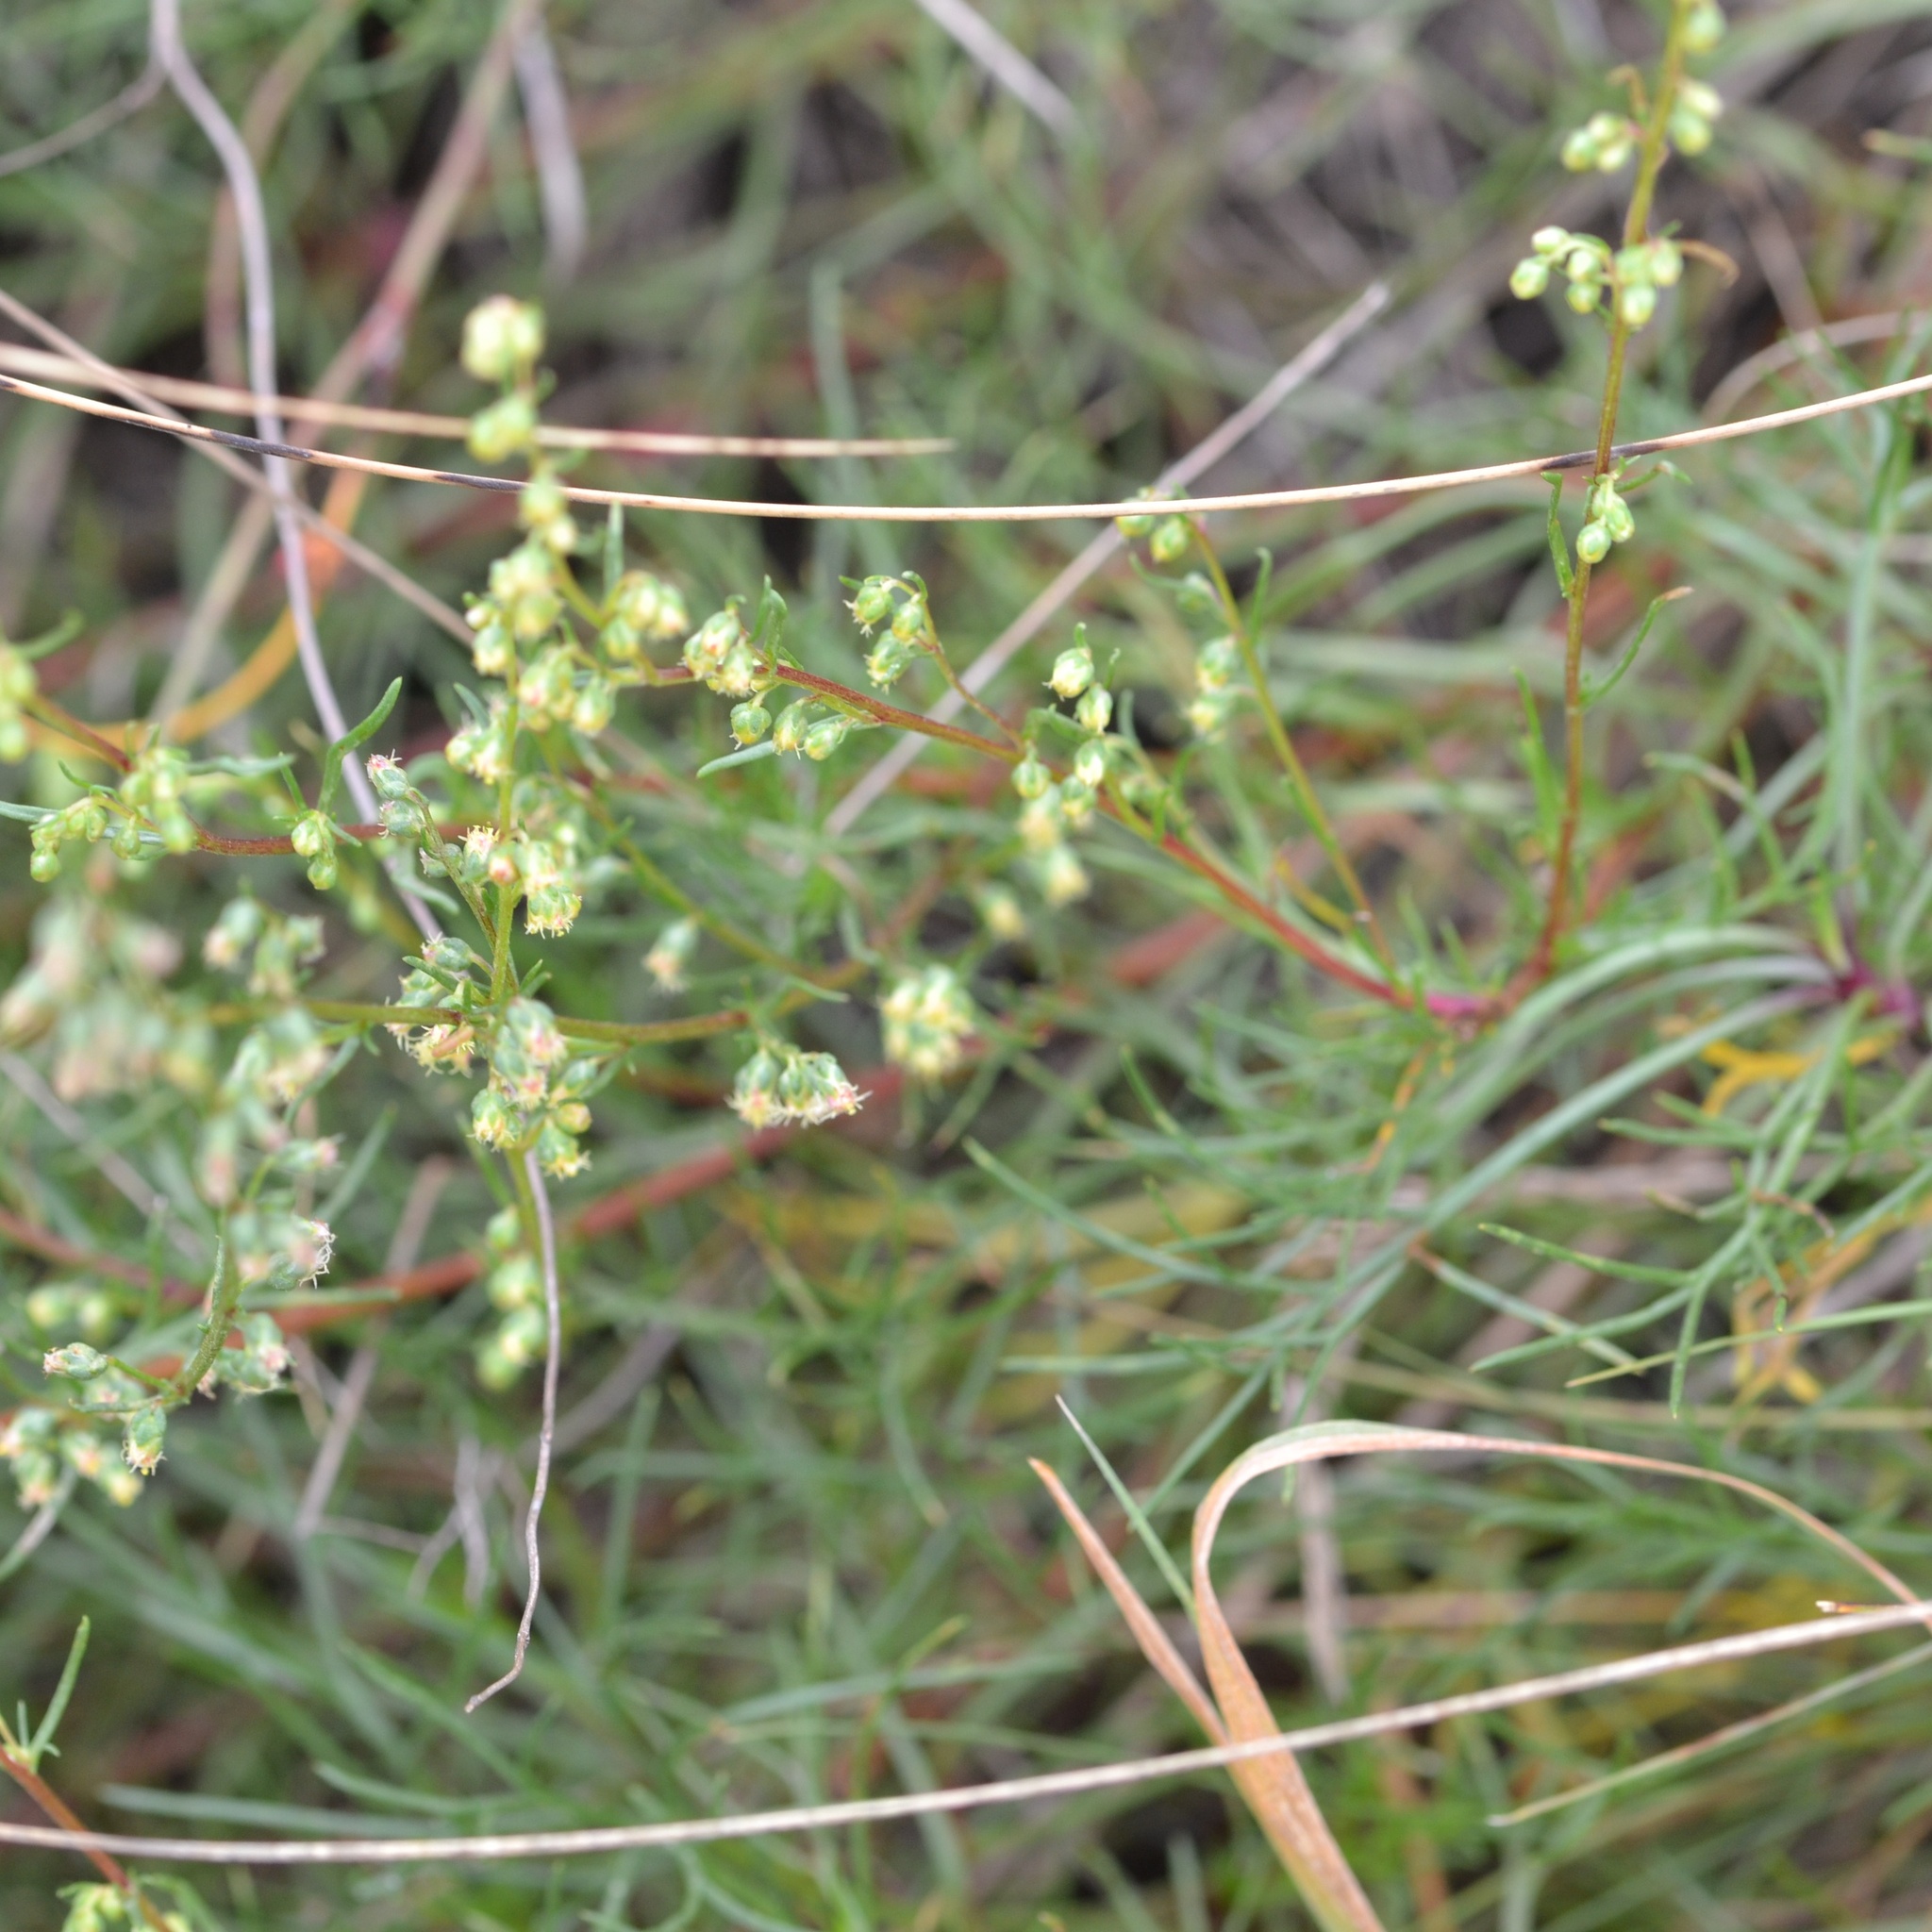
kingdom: Plantae
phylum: Tracheophyta
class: Magnoliopsida
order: Asterales
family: Asteraceae
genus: Artemisia
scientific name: Artemisia campestris
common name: Field wormwood
